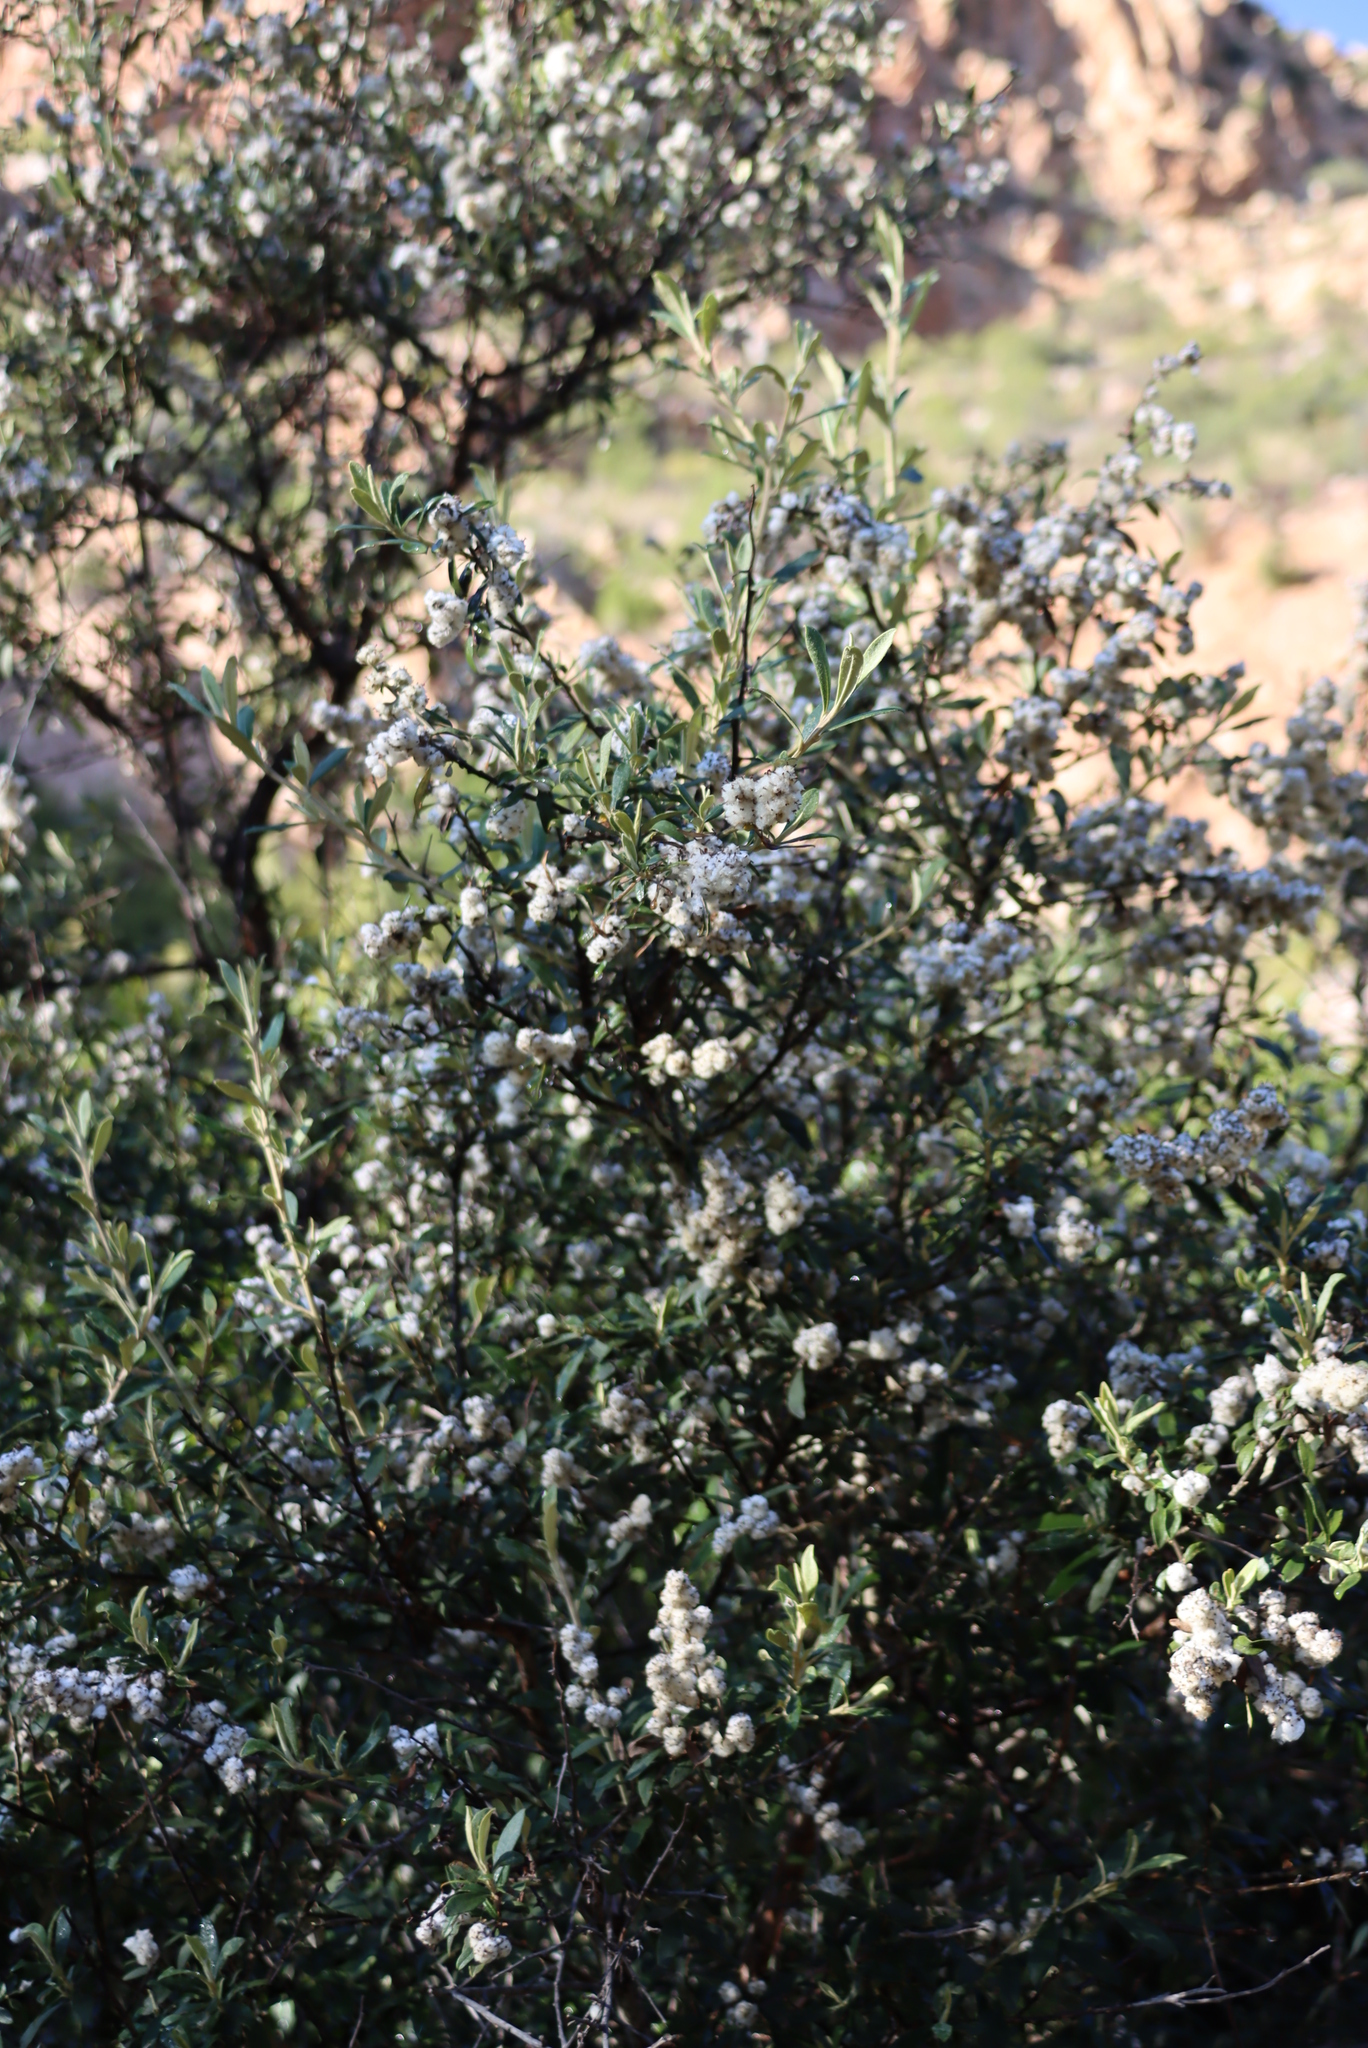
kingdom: Plantae
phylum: Tracheophyta
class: Magnoliopsida
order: Asterales
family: Asteraceae
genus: Tarchonanthus
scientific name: Tarchonanthus littoralis
